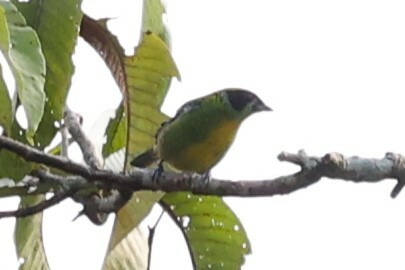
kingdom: Animalia
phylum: Chordata
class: Aves
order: Passeriformes
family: Thraupidae
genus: Tangara
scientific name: Tangara schrankii
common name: Green-and-gold tanager
